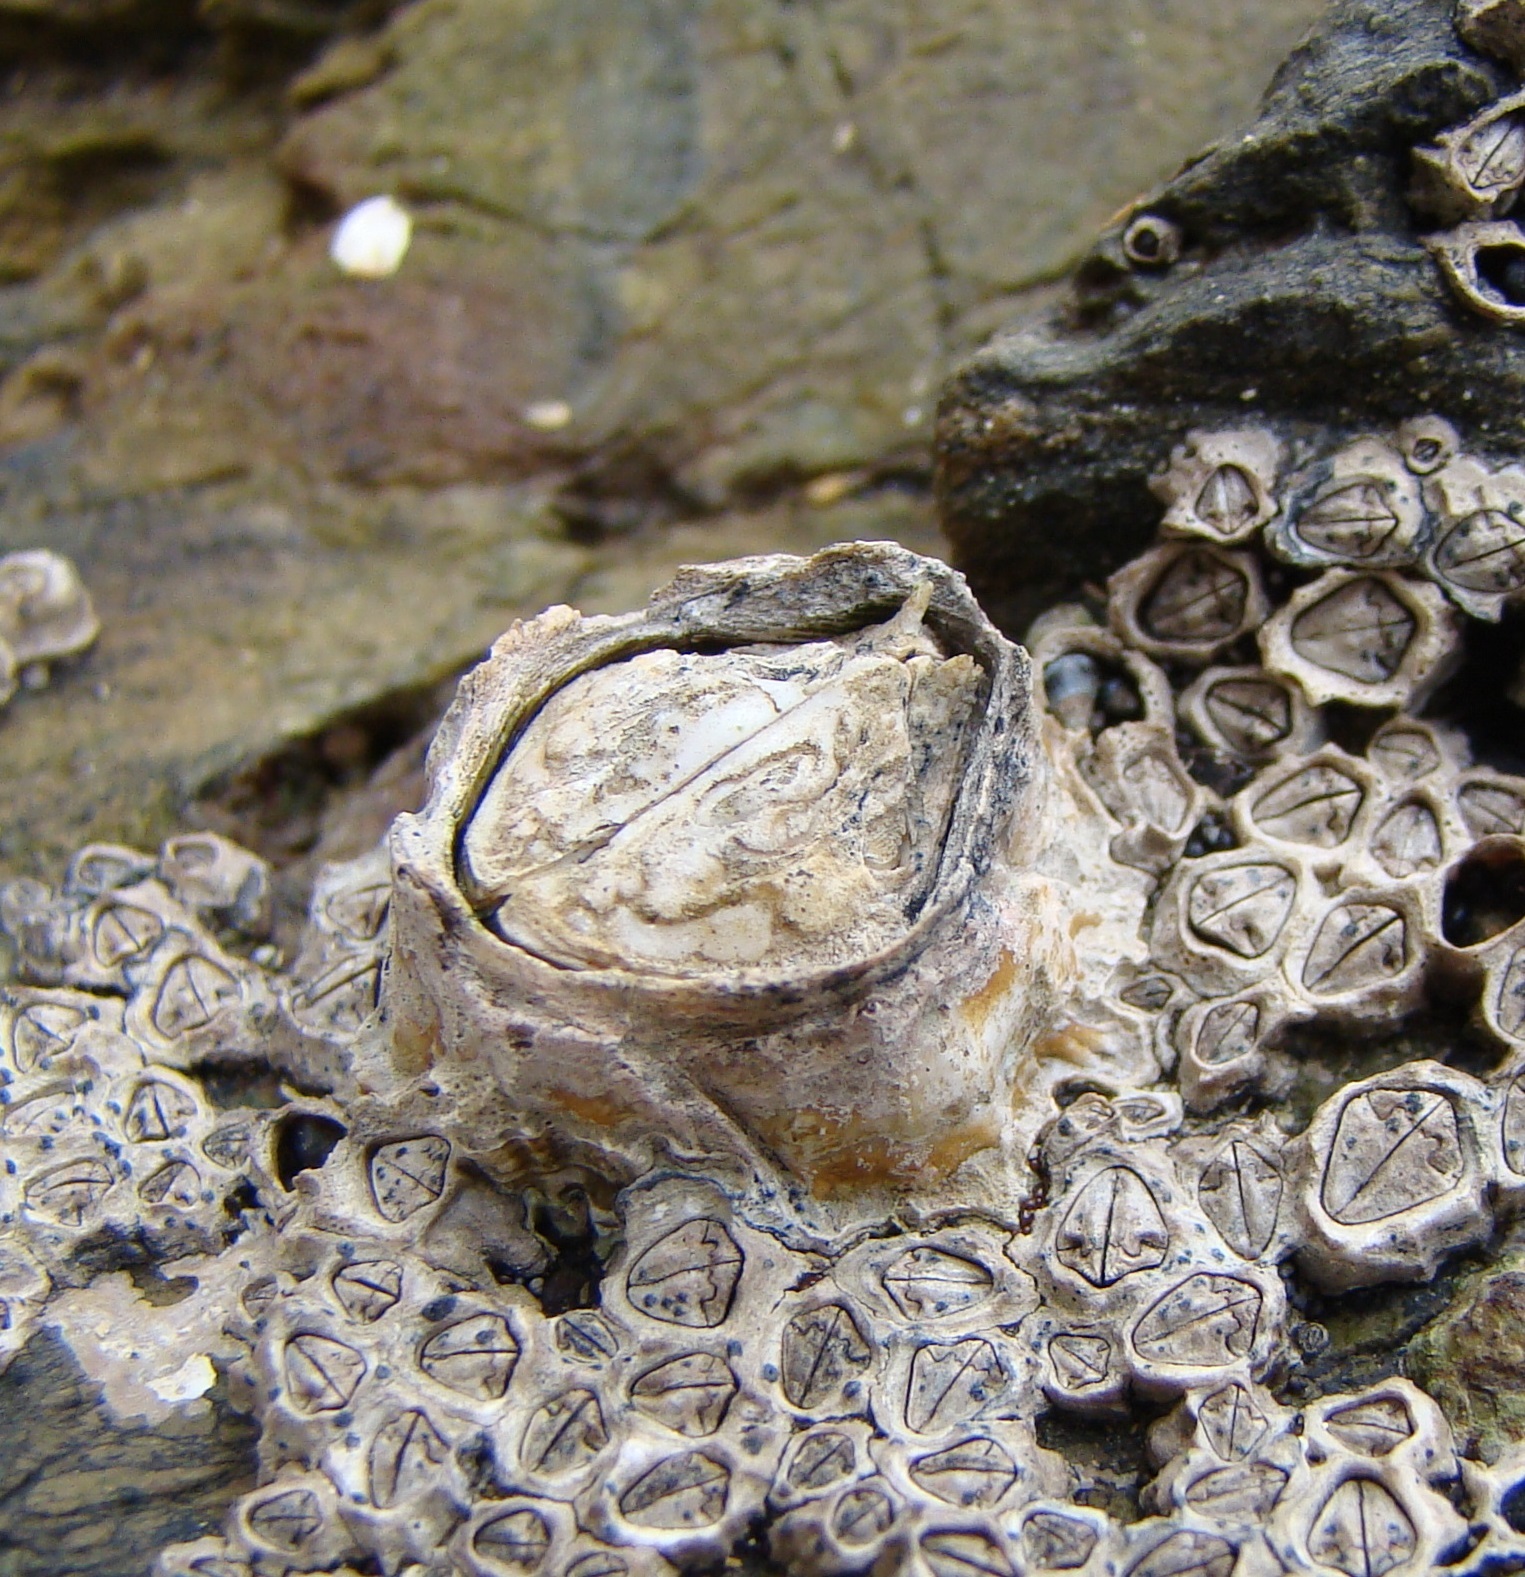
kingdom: Animalia
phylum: Arthropoda
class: Maxillopoda
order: Sessilia
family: Tetraclitidae
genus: Epopella
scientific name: Epopella plicata
